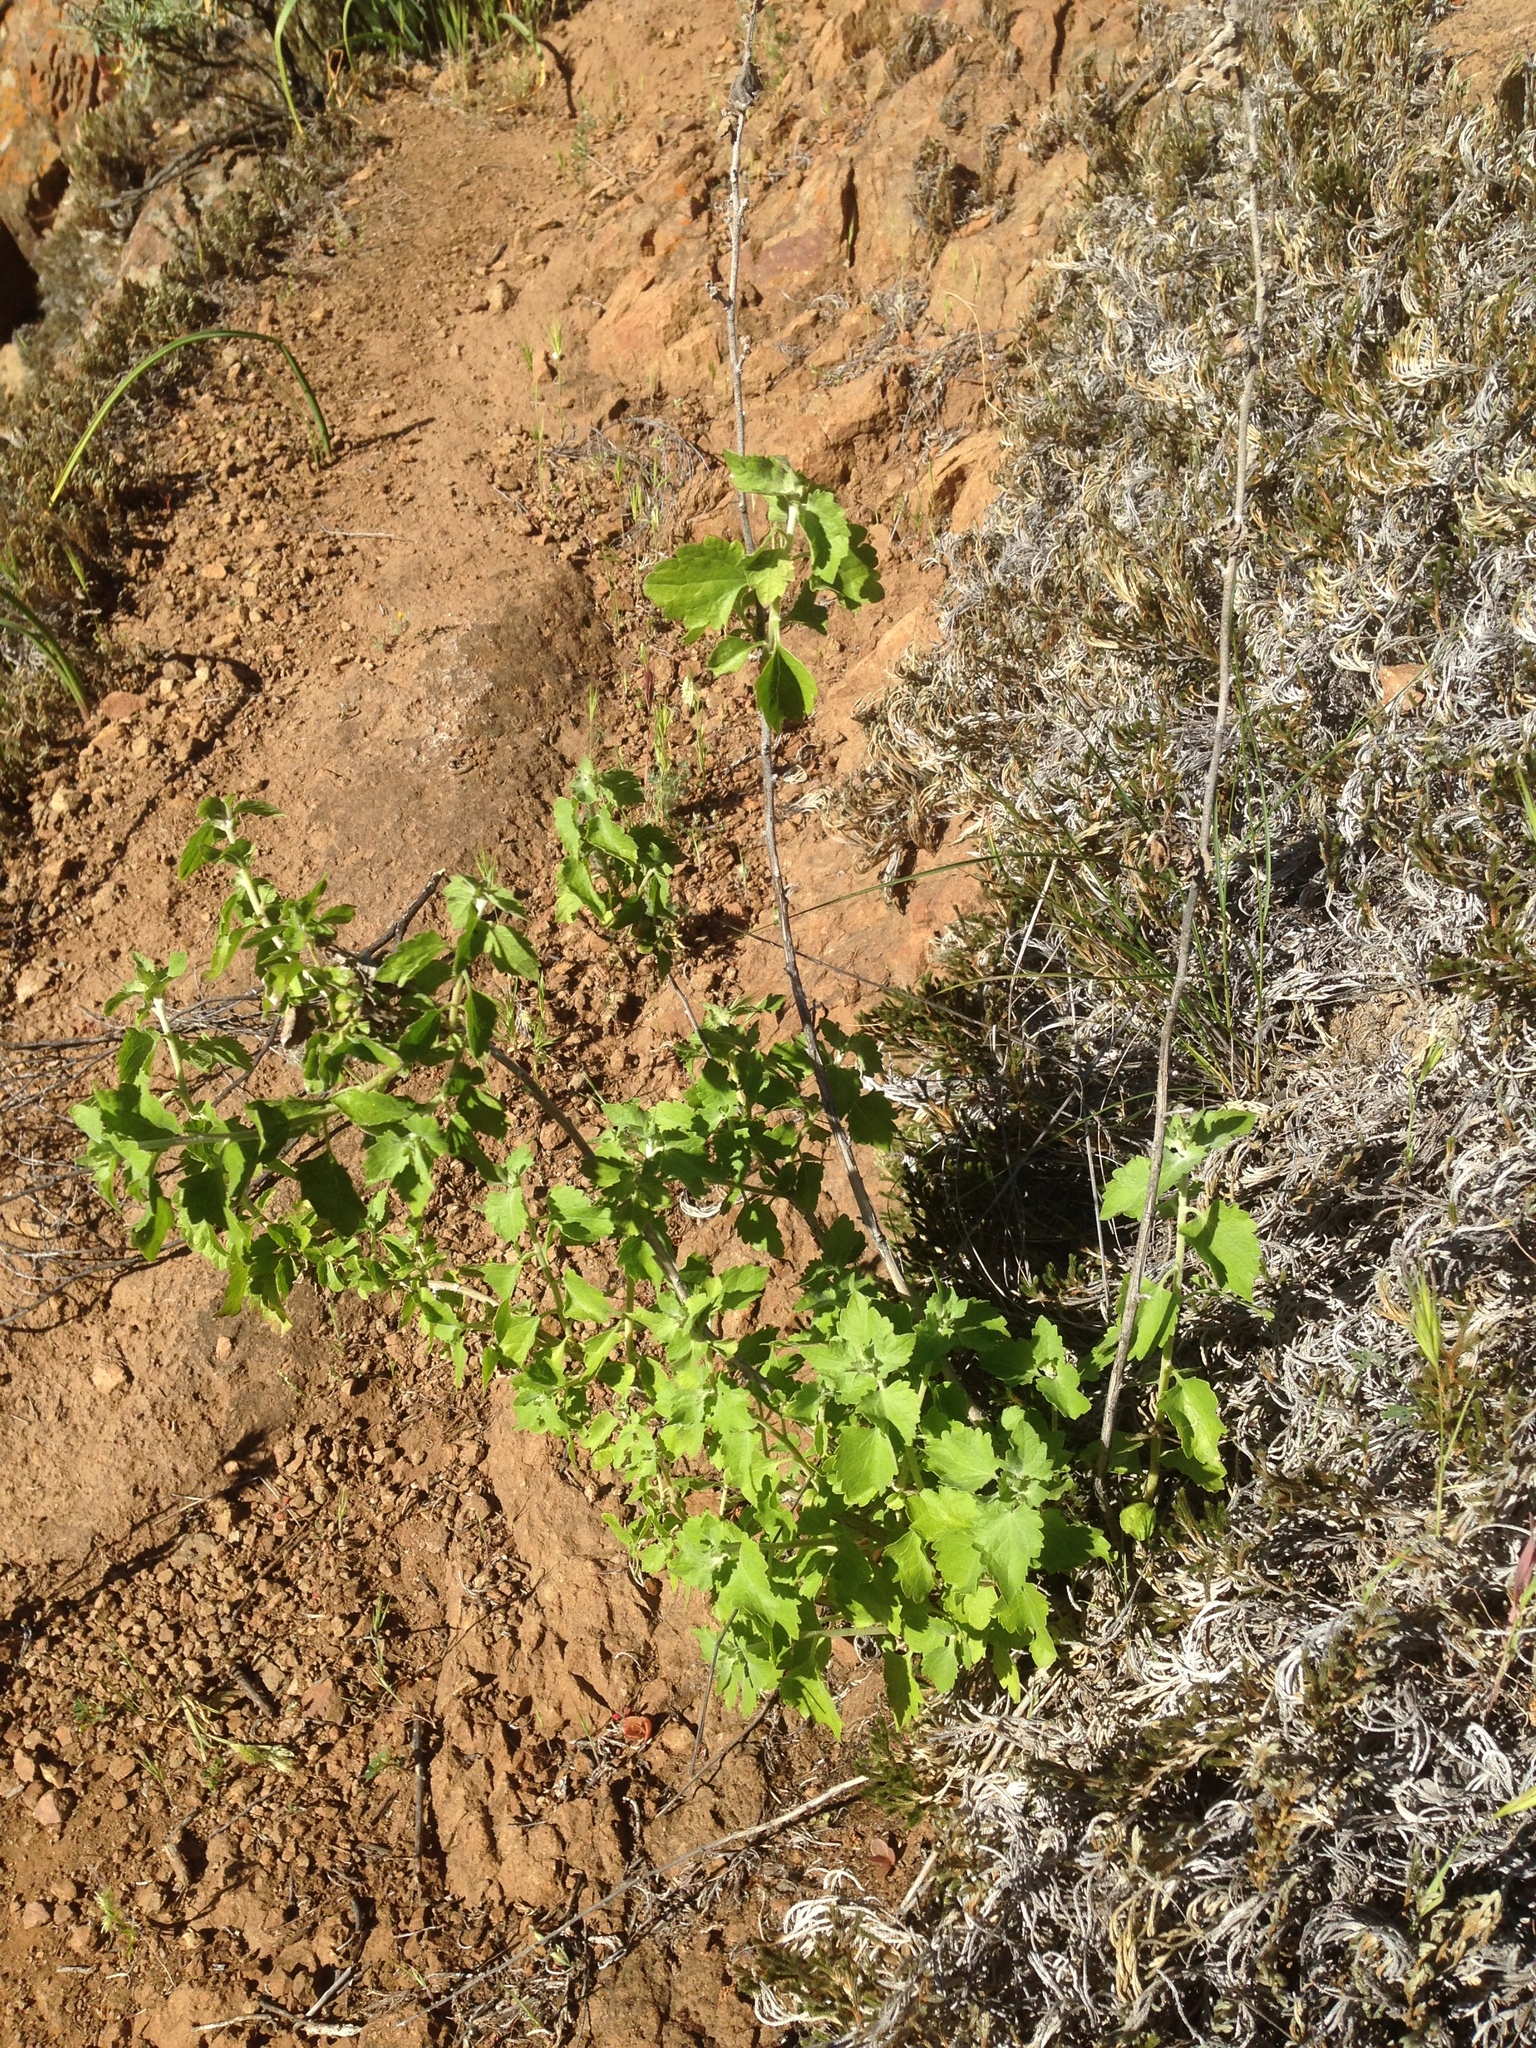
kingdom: Plantae
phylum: Tracheophyta
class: Magnoliopsida
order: Asterales
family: Asteraceae
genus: Brickellia
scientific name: Brickellia californica
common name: California brickellbush
